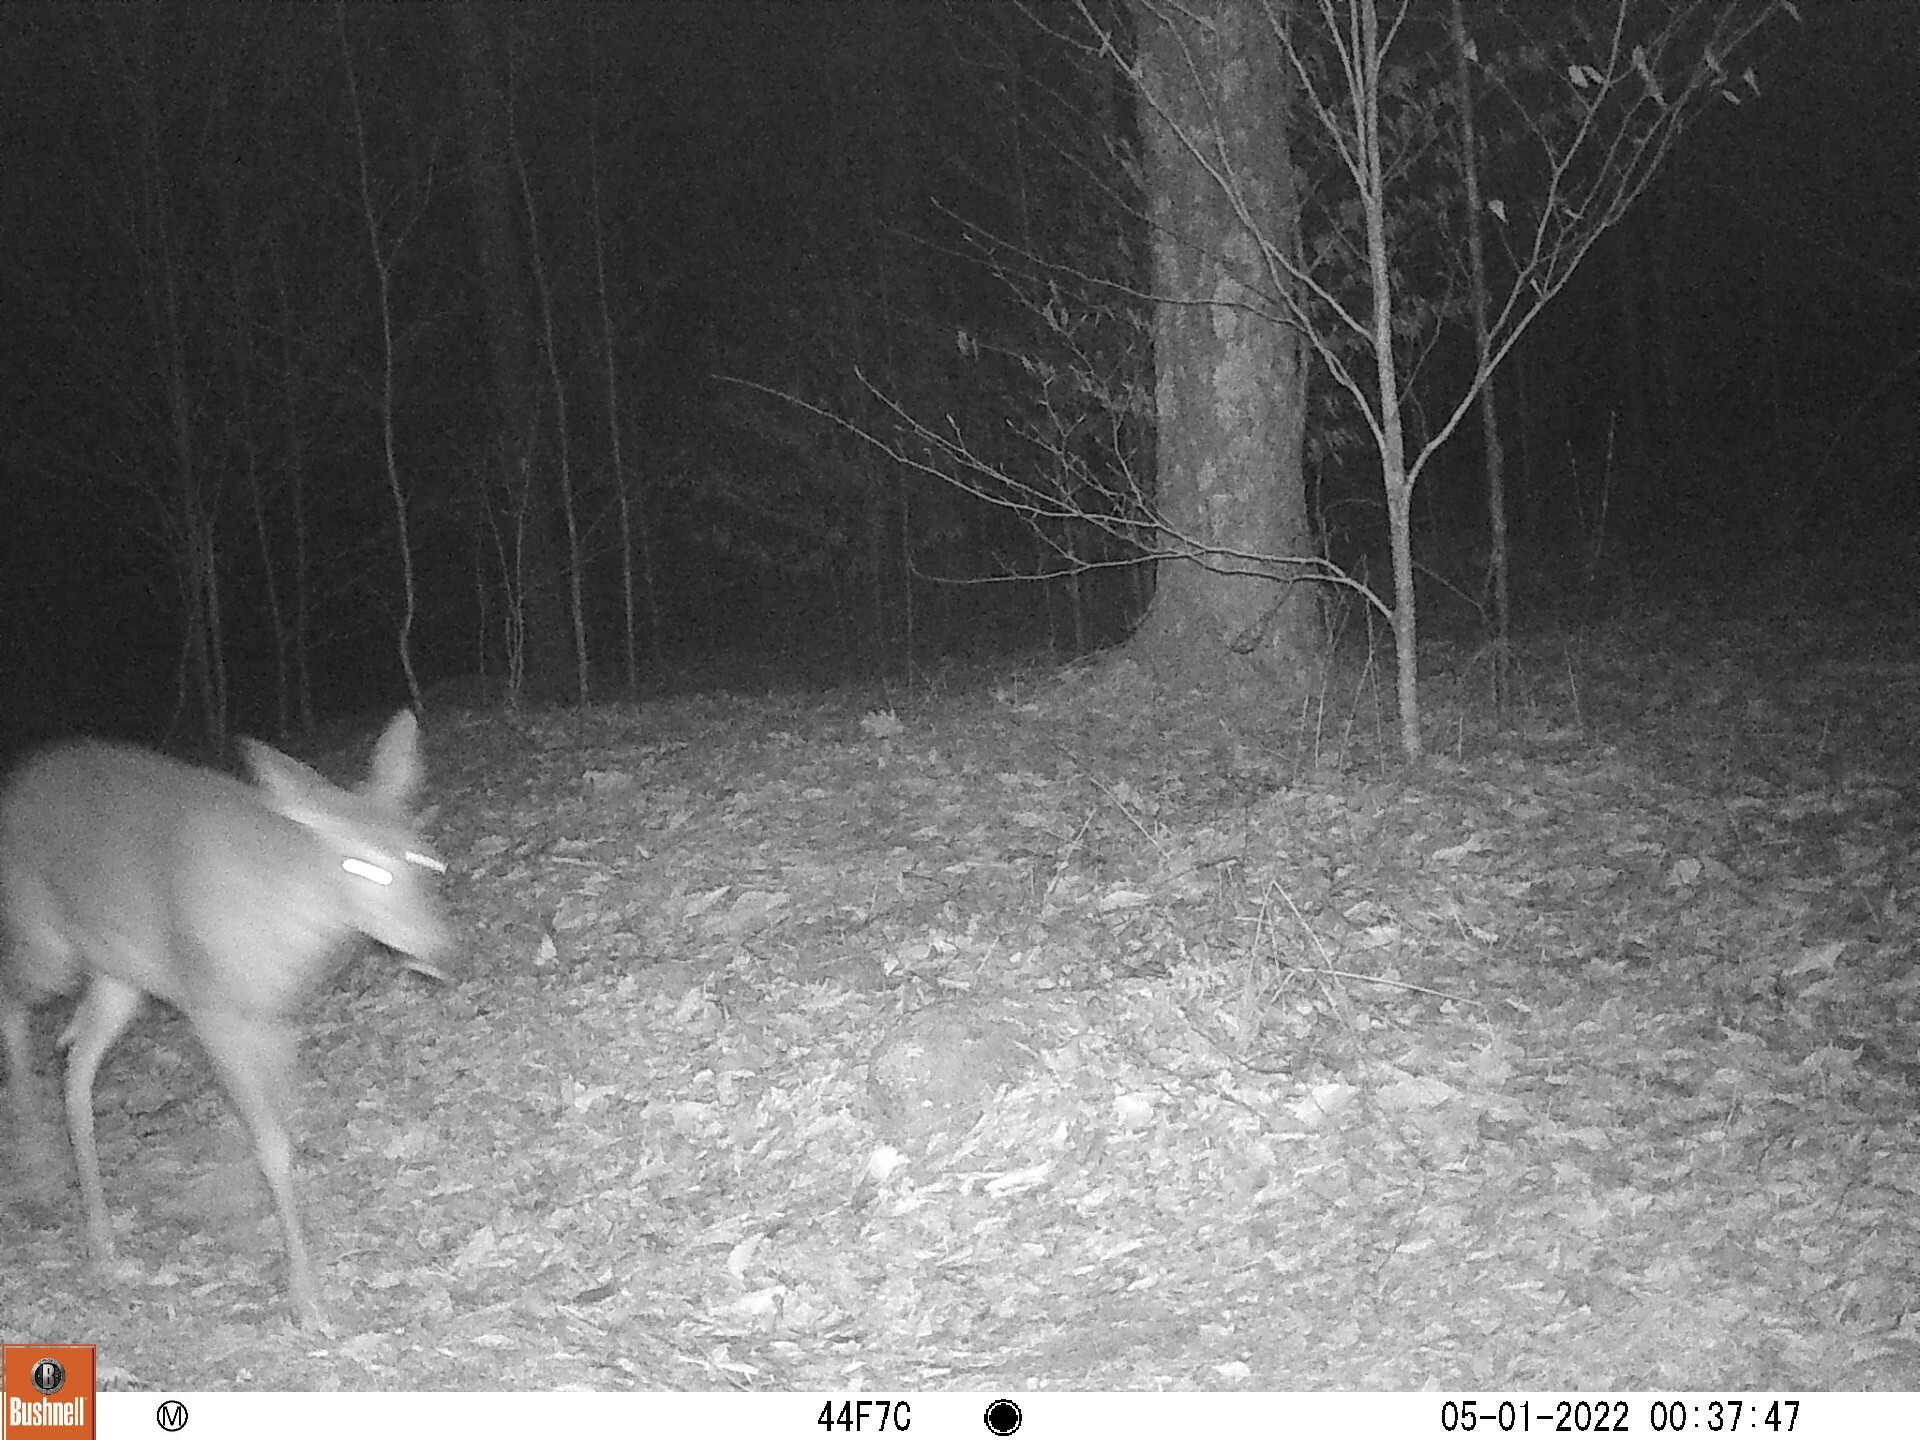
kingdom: Animalia
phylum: Chordata
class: Mammalia
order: Artiodactyla
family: Cervidae
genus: Odocoileus
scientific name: Odocoileus virginianus
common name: White-tailed deer
